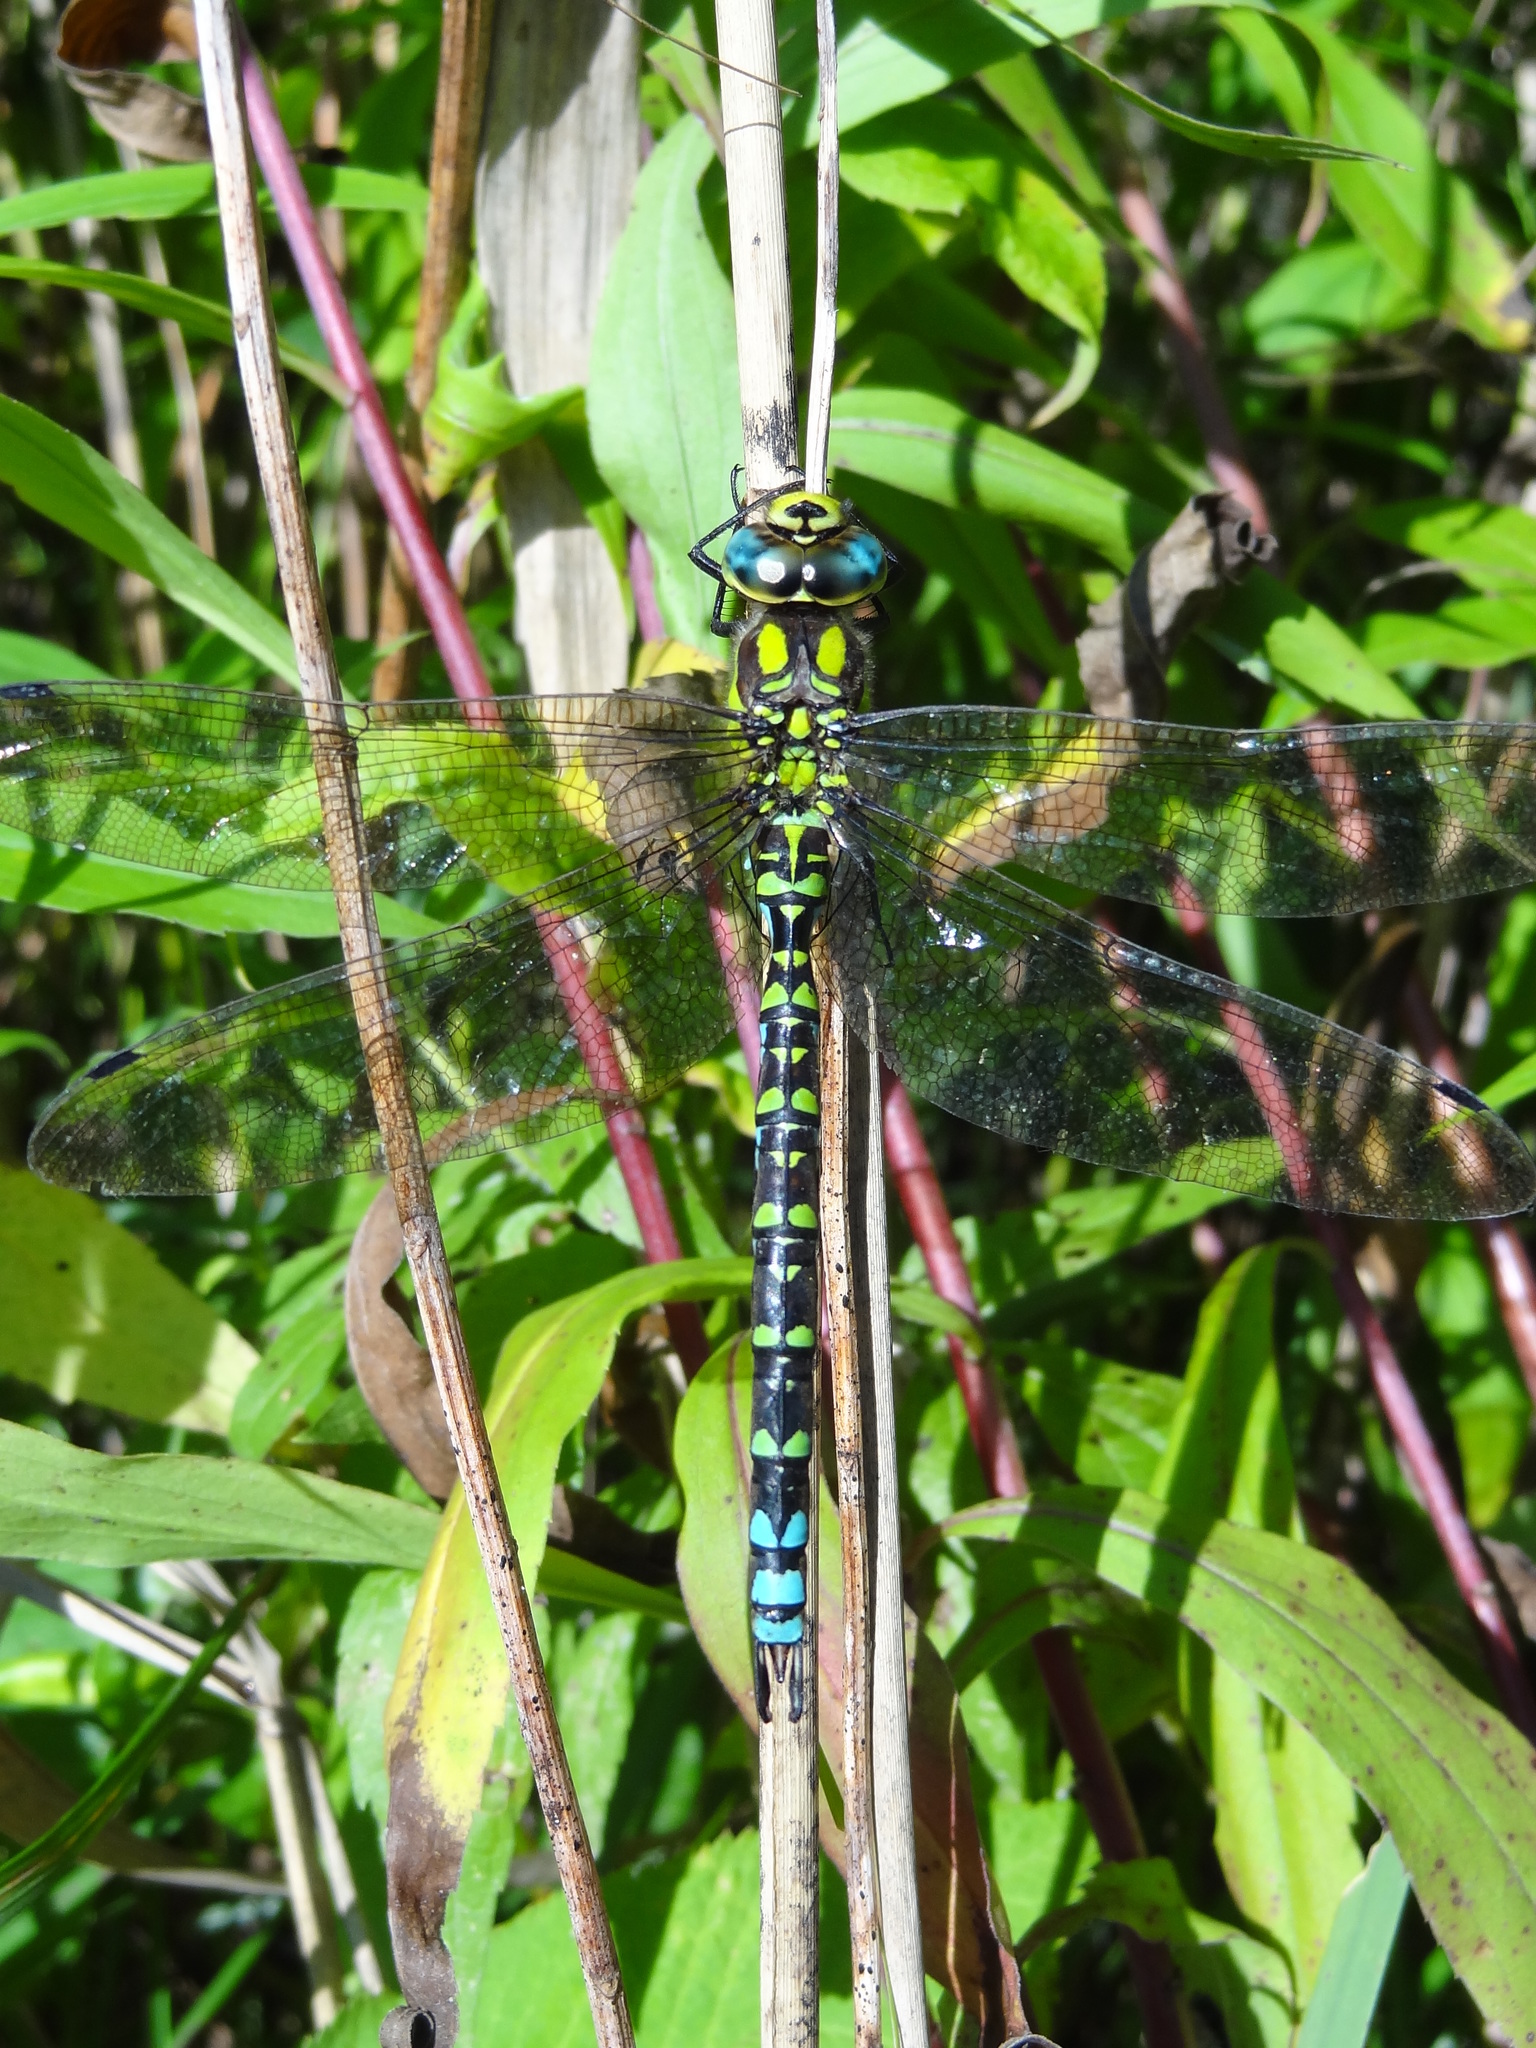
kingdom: Animalia
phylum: Arthropoda
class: Insecta
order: Odonata
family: Aeshnidae
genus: Aeshna
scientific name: Aeshna cyanea
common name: Southern hawker
